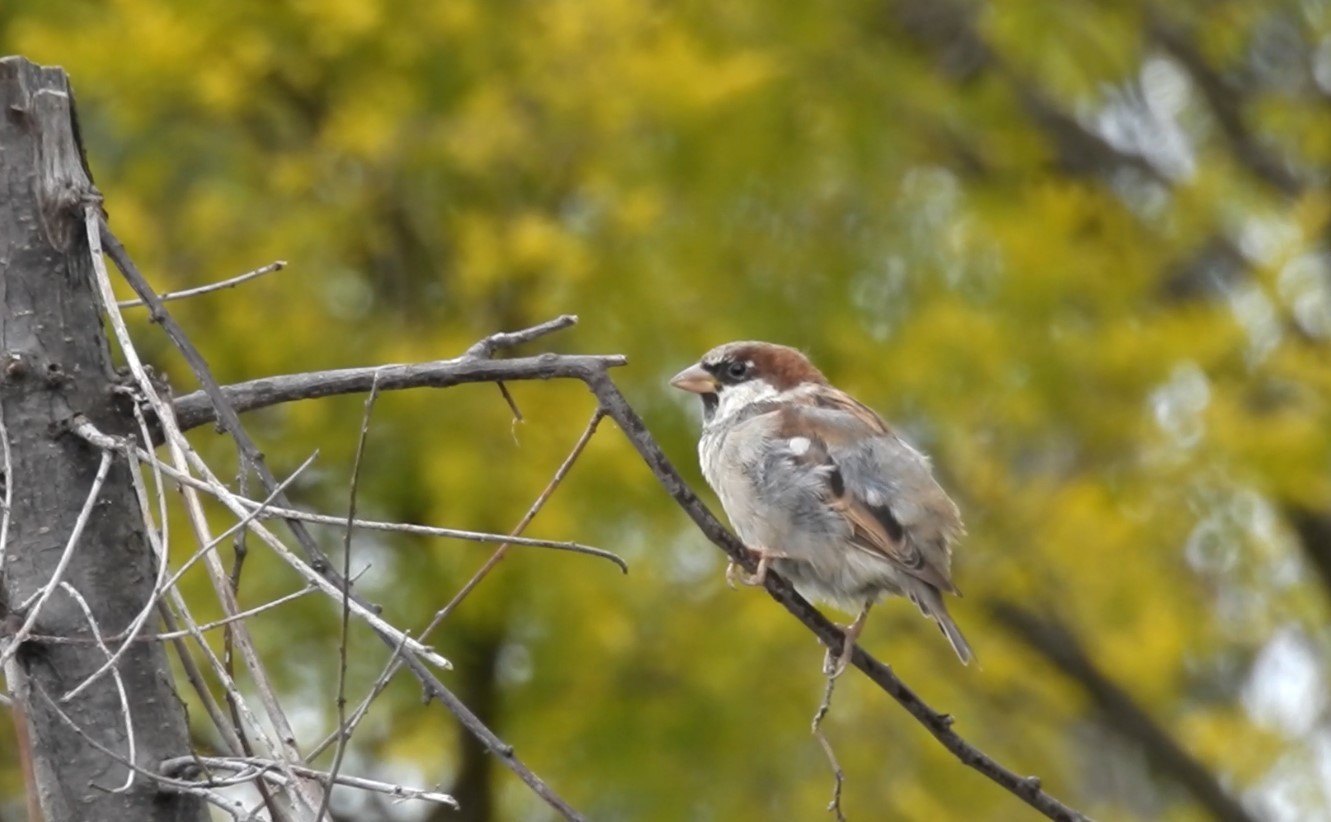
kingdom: Animalia
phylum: Chordata
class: Aves
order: Passeriformes
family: Passeridae
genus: Passer
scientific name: Passer domesticus
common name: House sparrow
